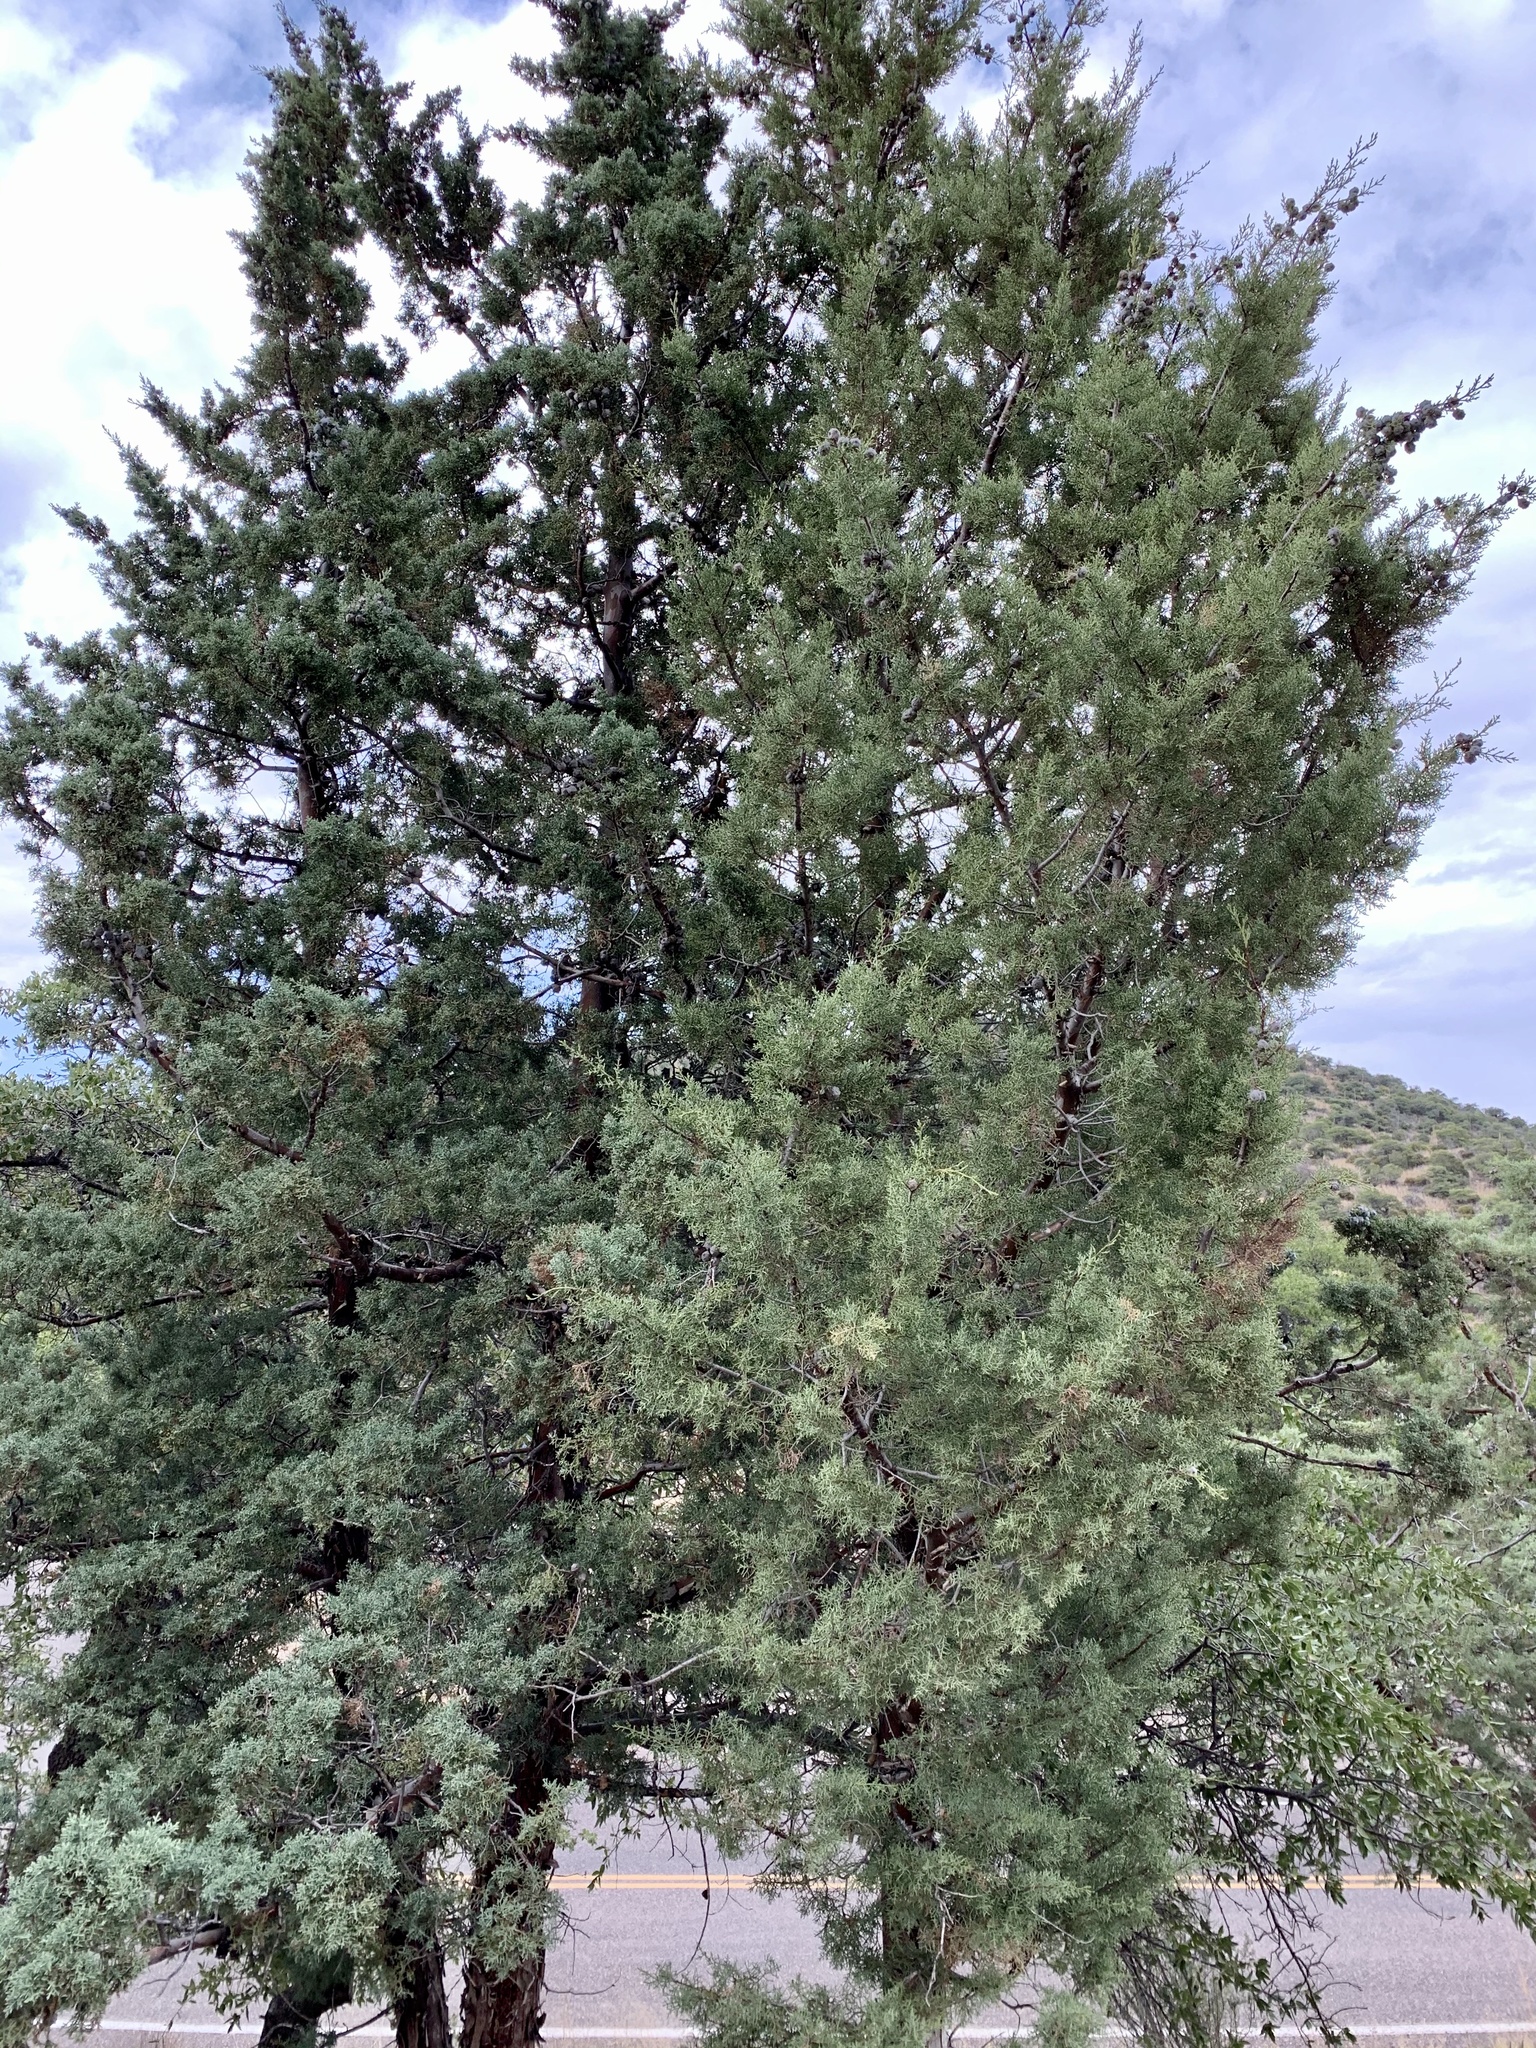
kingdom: Plantae
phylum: Tracheophyta
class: Pinopsida
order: Pinales
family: Cupressaceae
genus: Cupressus
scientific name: Cupressus arizonica
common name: Arizona cypress
